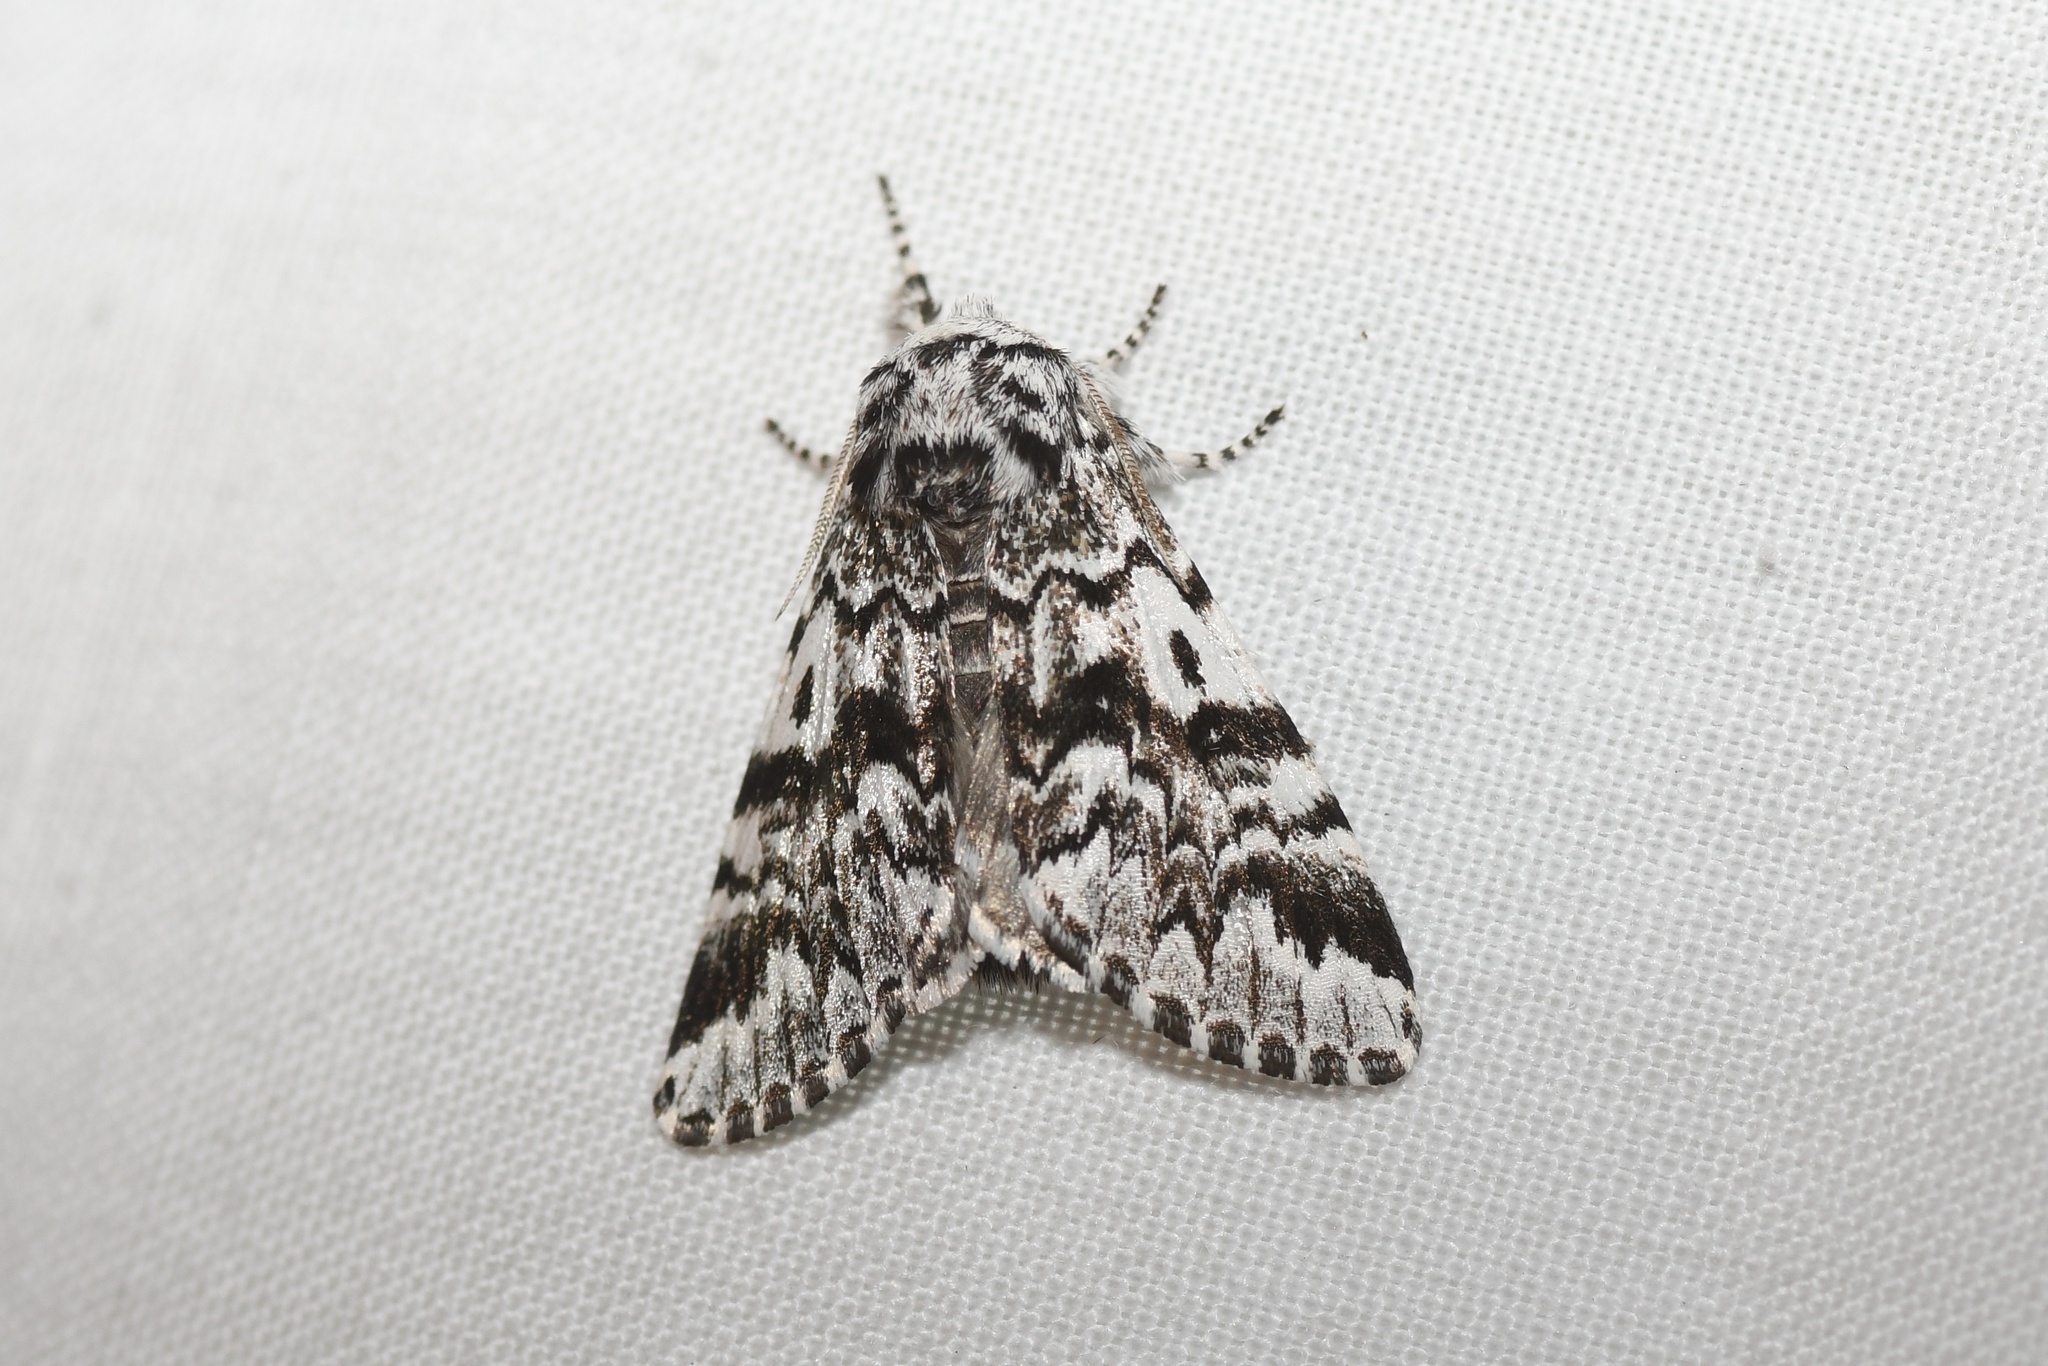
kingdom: Animalia
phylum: Arthropoda
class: Insecta
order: Lepidoptera
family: Noctuidae
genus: Panthea
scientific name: Panthea acronyctoides
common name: Black zigzag moth
